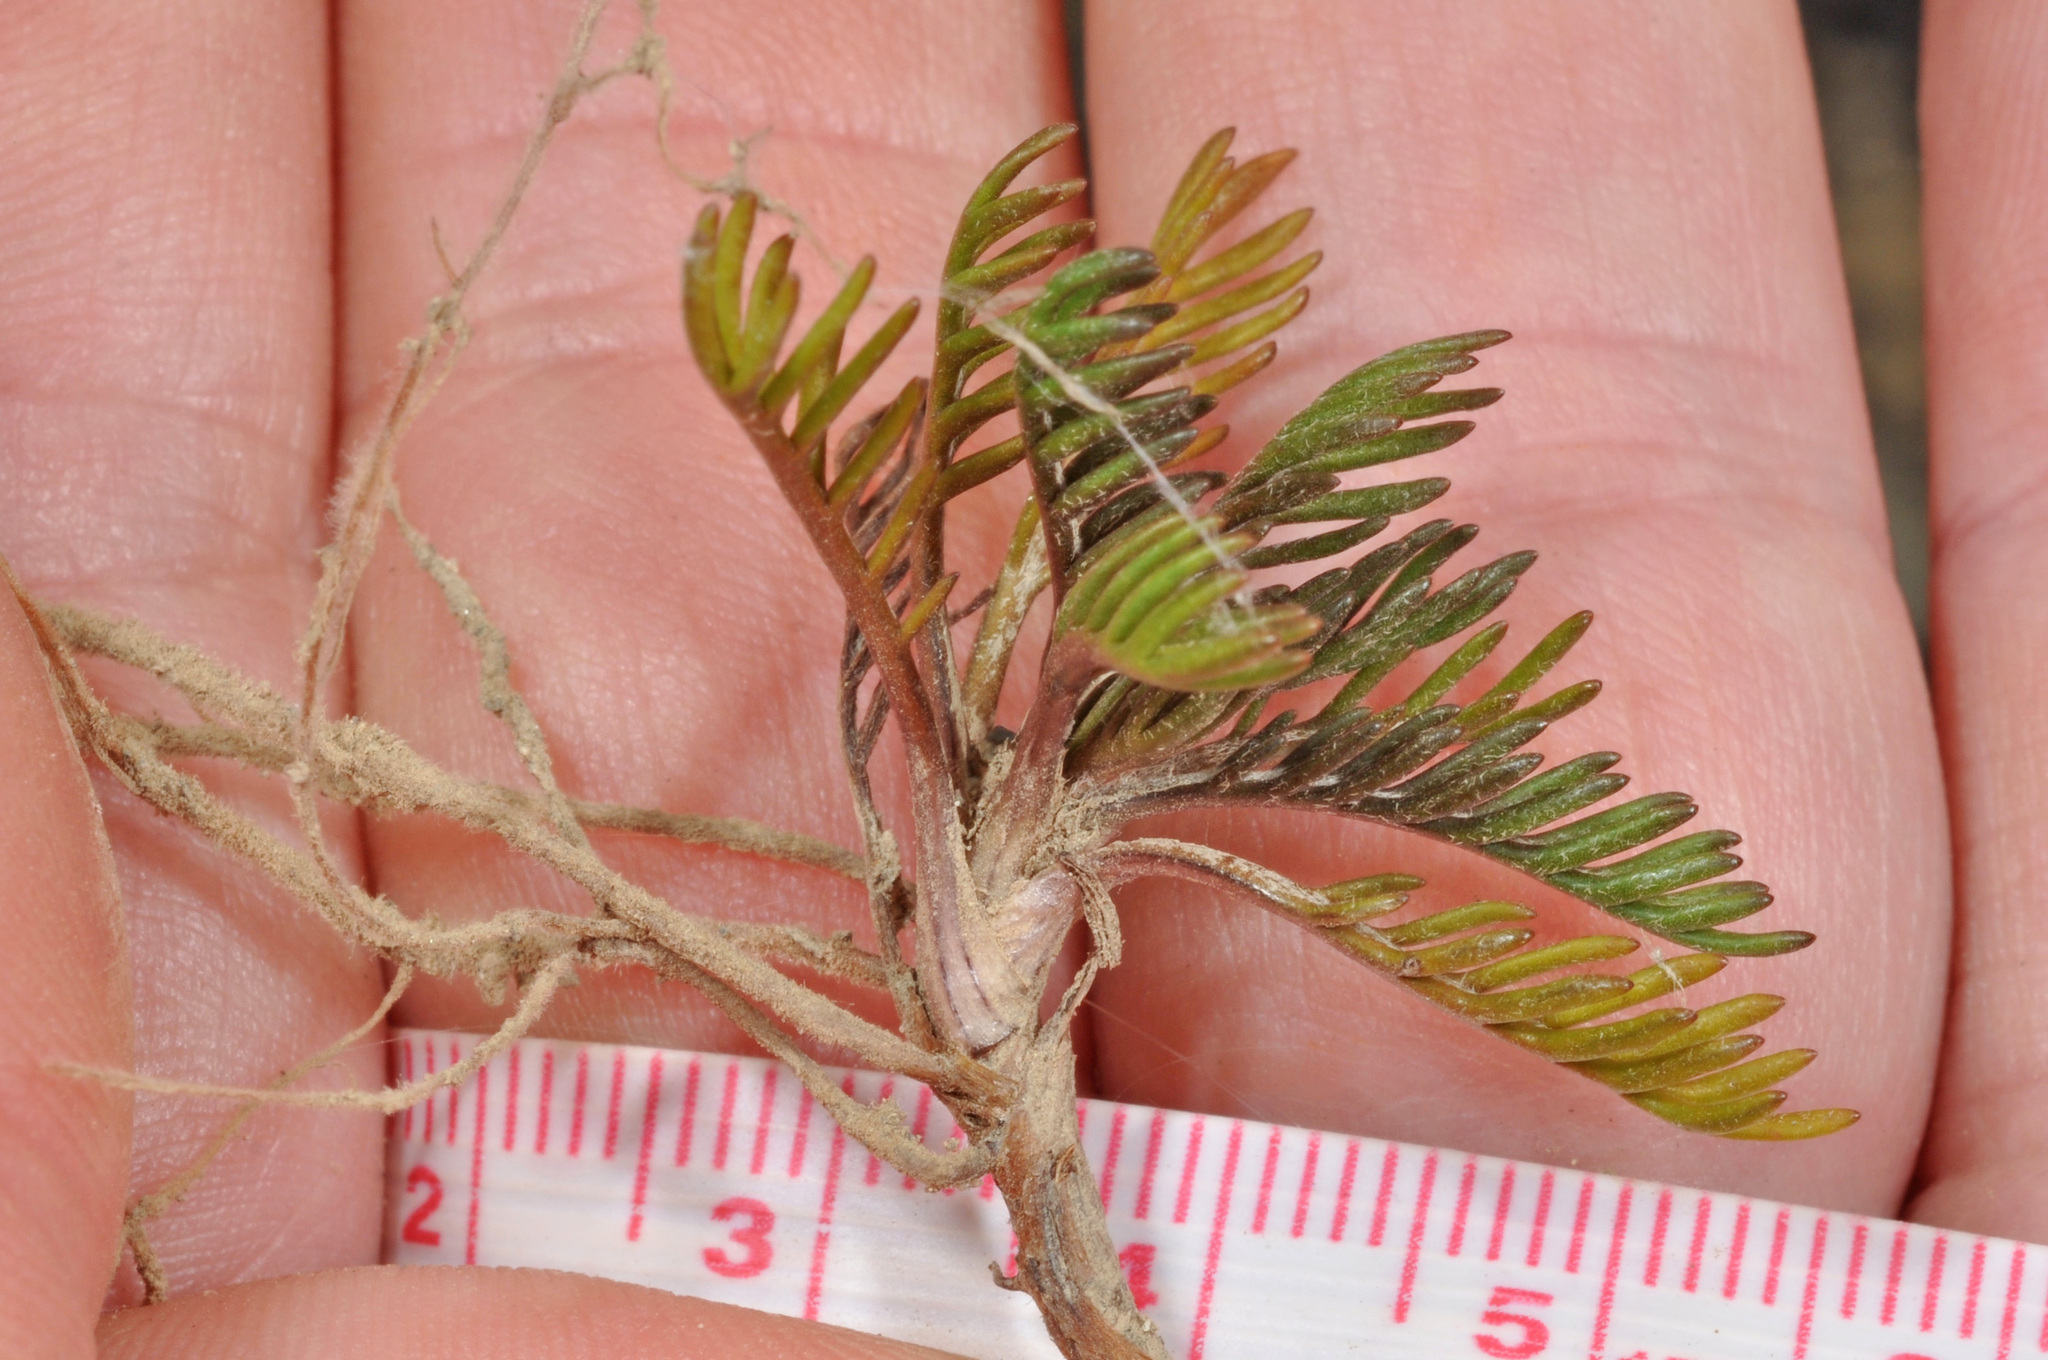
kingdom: Plantae
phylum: Tracheophyta
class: Magnoliopsida
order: Asterales
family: Asteraceae
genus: Leptinella
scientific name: Leptinella pectinata
